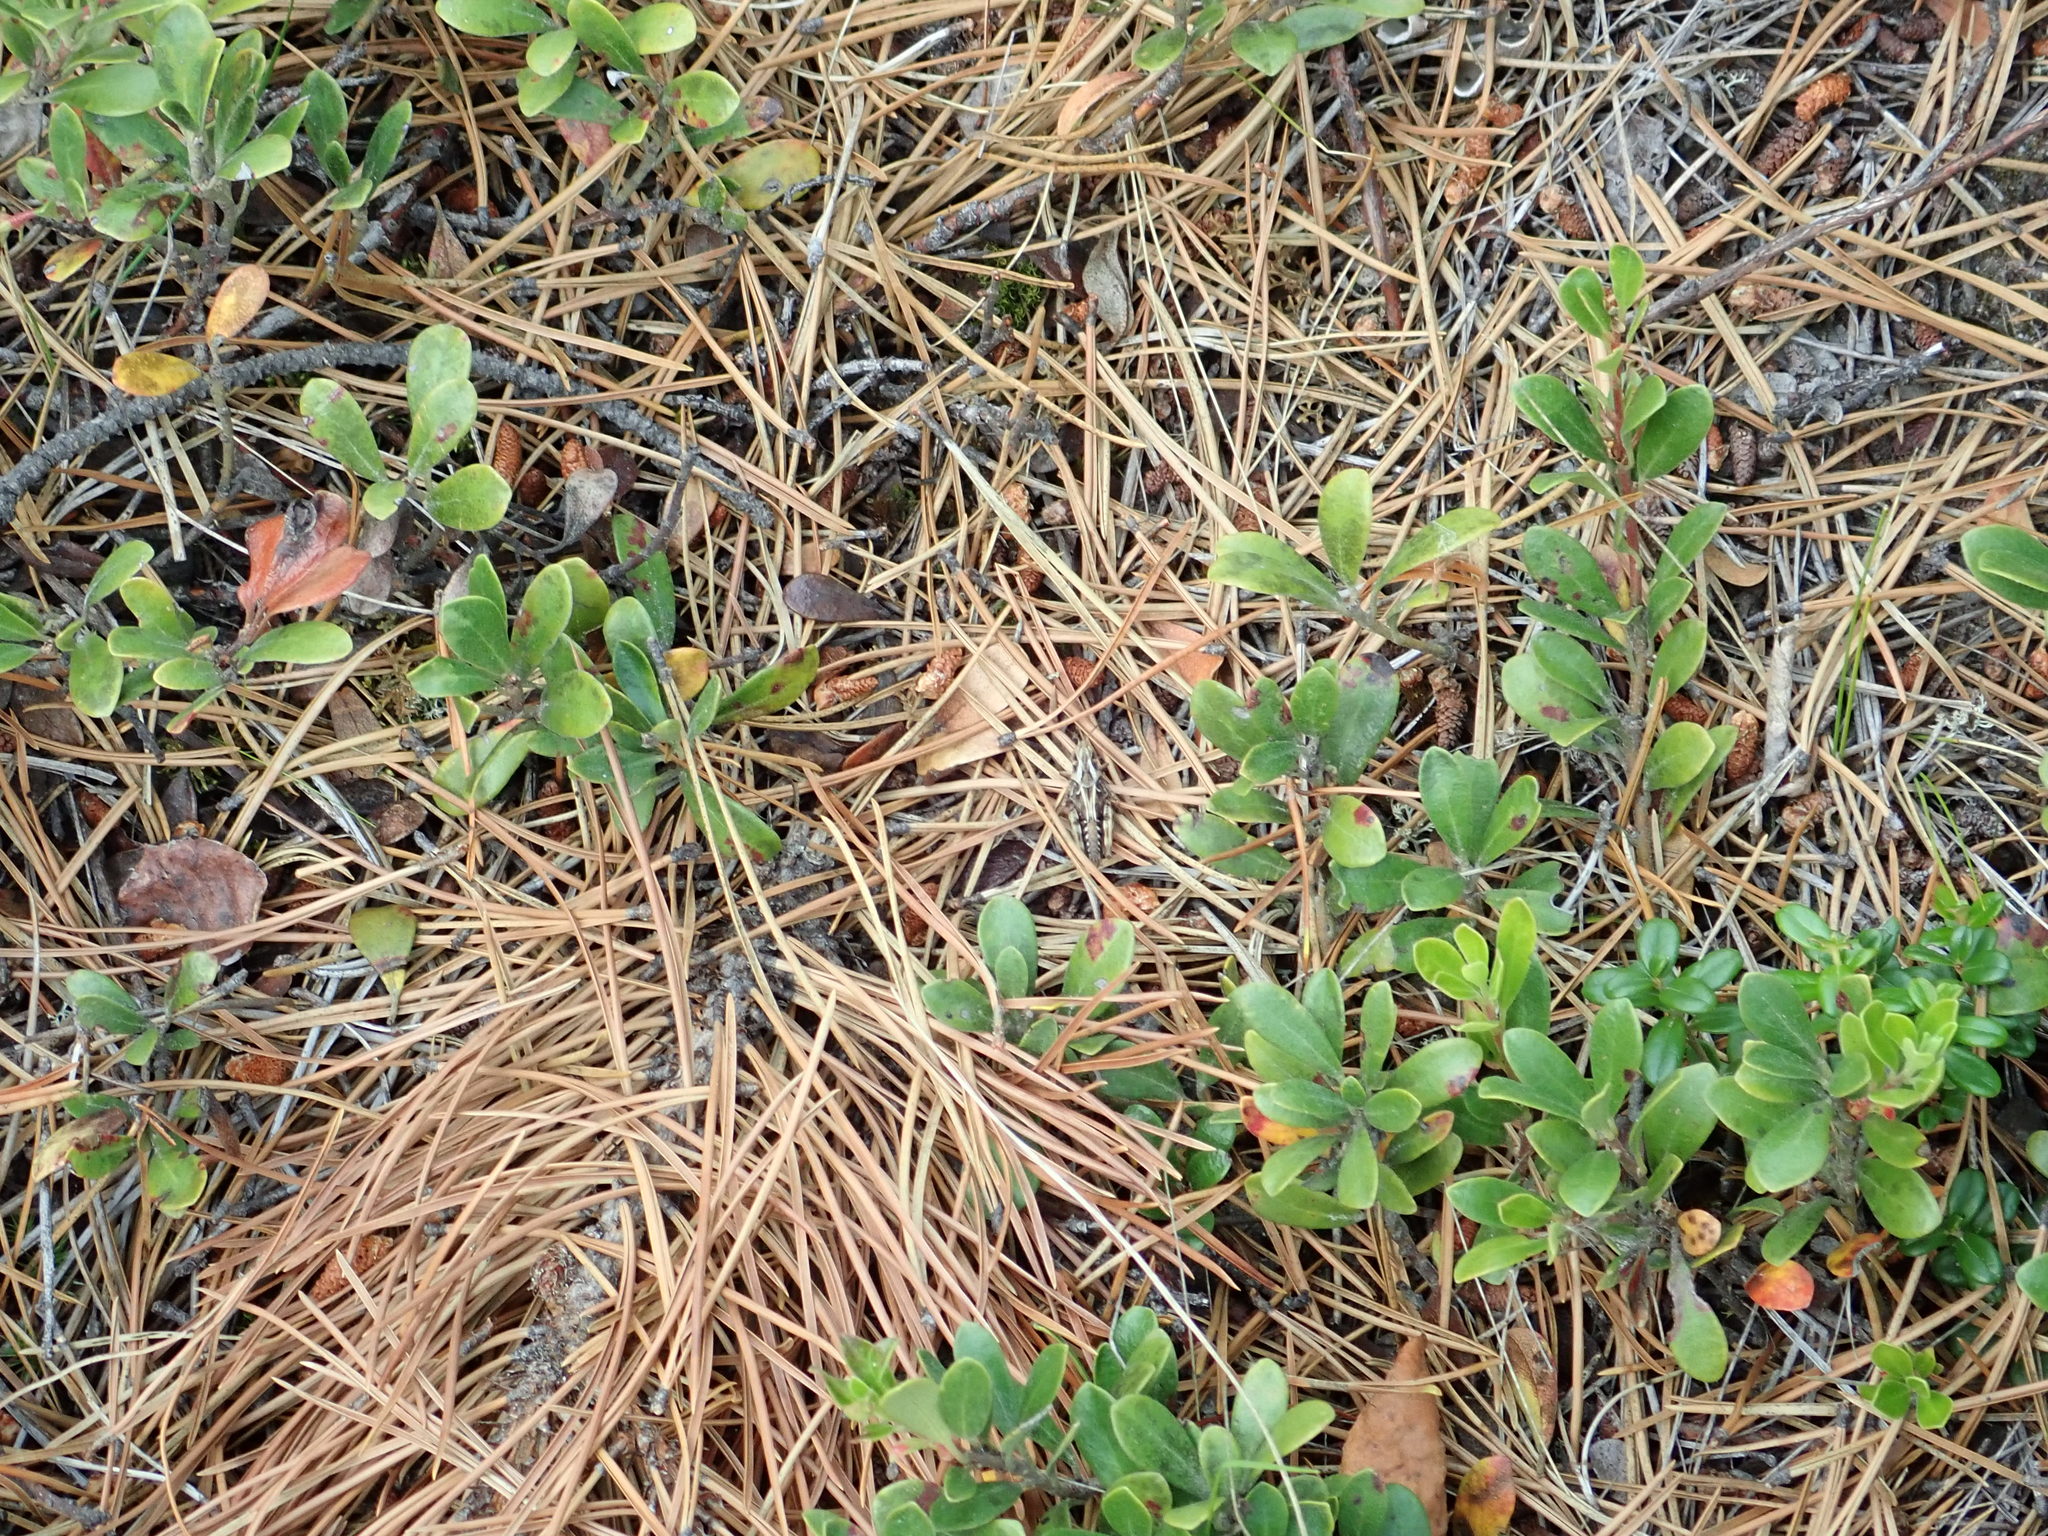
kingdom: Animalia
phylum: Arthropoda
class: Insecta
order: Orthoptera
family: Acrididae
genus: Camnula
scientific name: Camnula pellucida
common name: Clear-winged grasshopper
